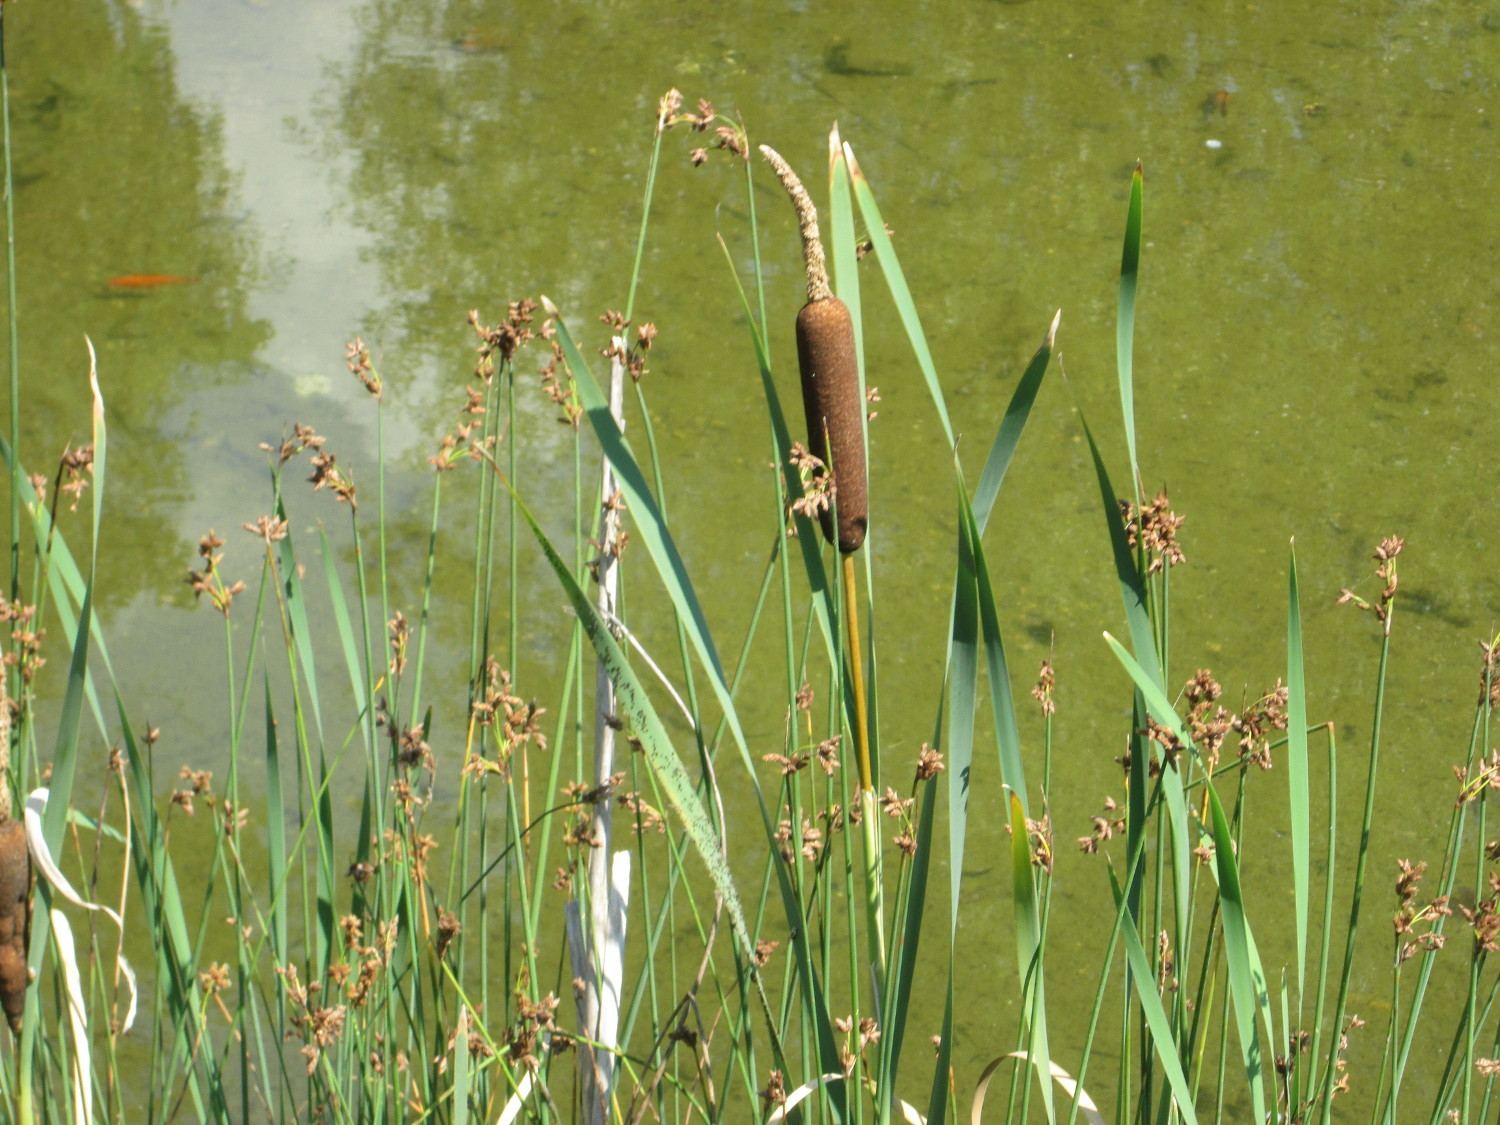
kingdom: Plantae
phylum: Tracheophyta
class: Liliopsida
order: Poales
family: Typhaceae
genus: Typha
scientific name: Typha latifolia
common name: Broadleaf cattail
